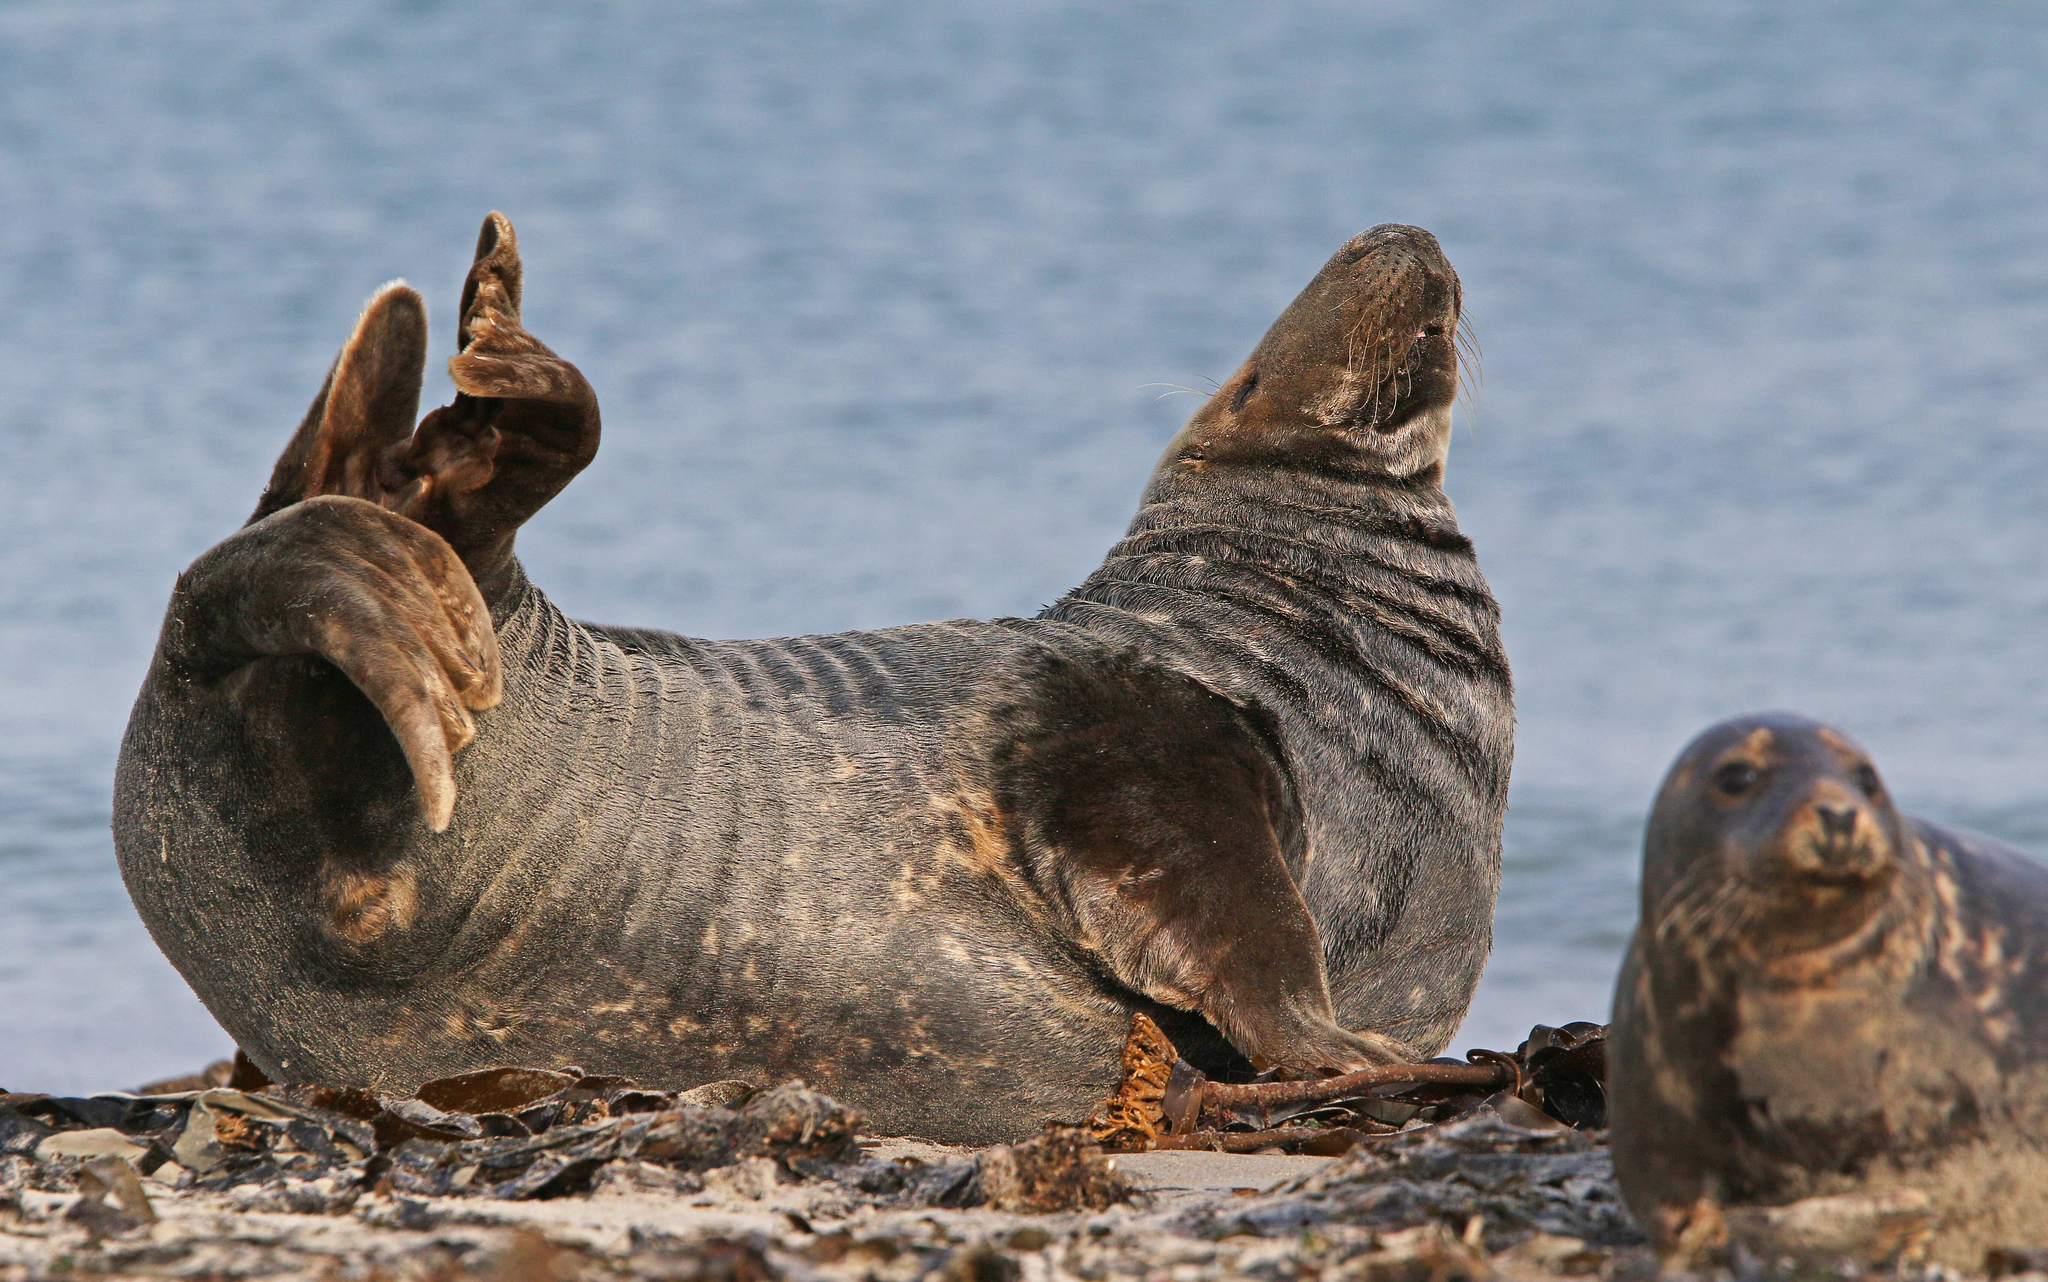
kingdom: Animalia
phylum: Chordata
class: Mammalia
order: Carnivora
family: Phocidae
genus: Halichoerus
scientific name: Halichoerus grypus
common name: Grey seal
